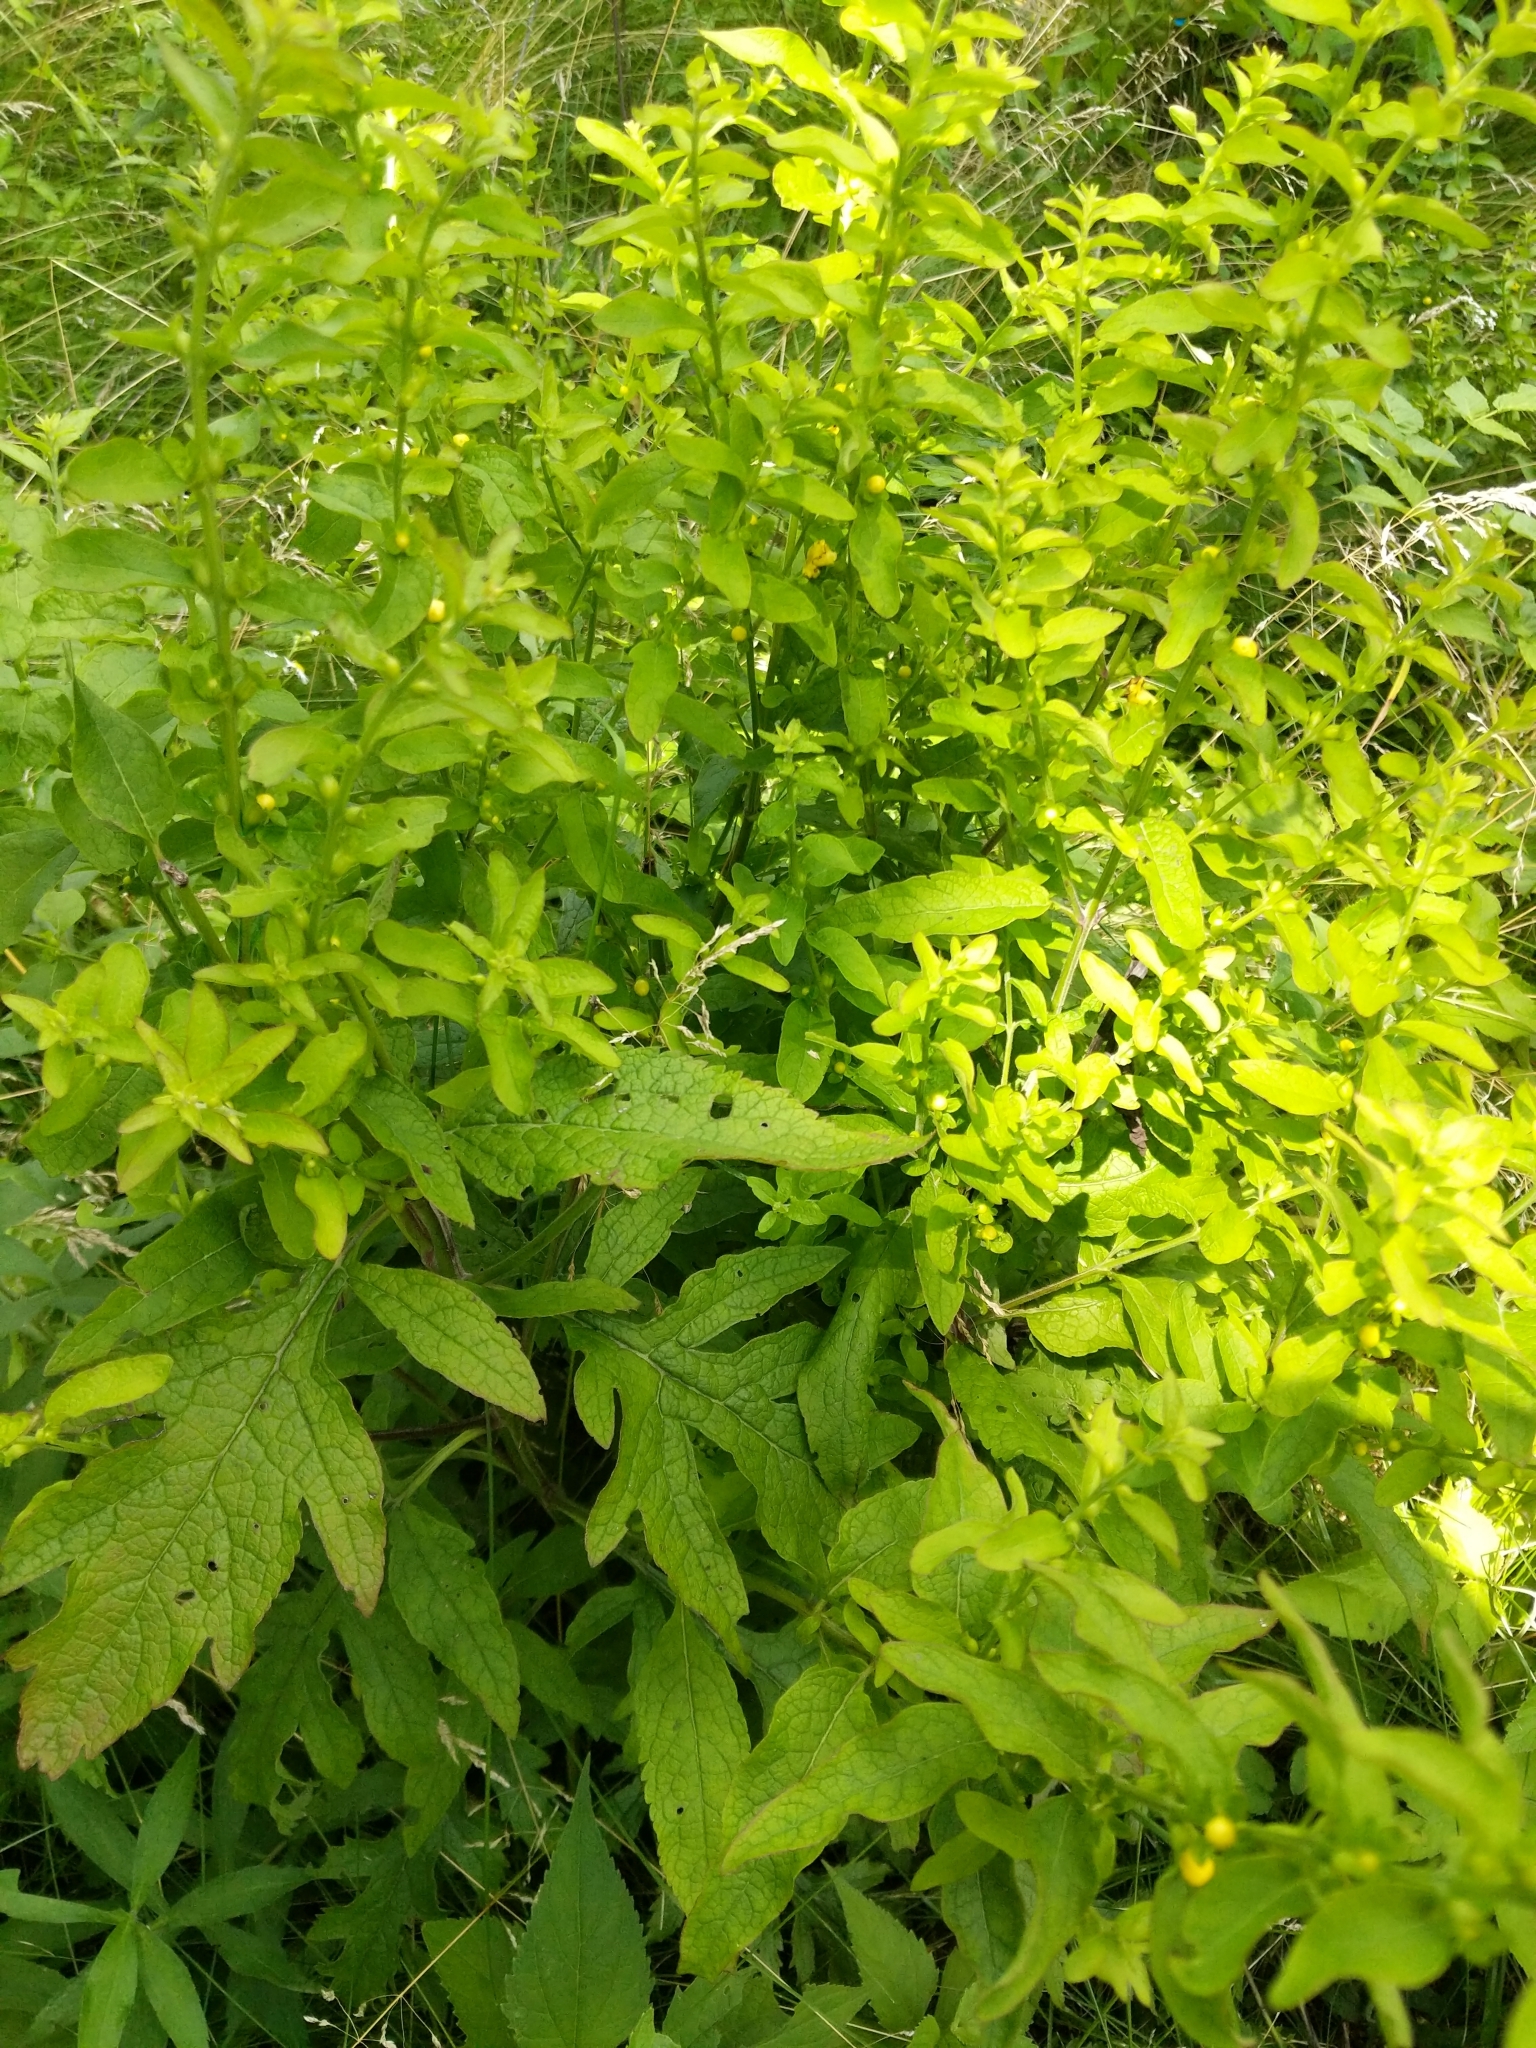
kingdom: Plantae
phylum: Tracheophyta
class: Magnoliopsida
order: Lamiales
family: Orobanchaceae
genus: Dasistoma
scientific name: Dasistoma macrophyllum
